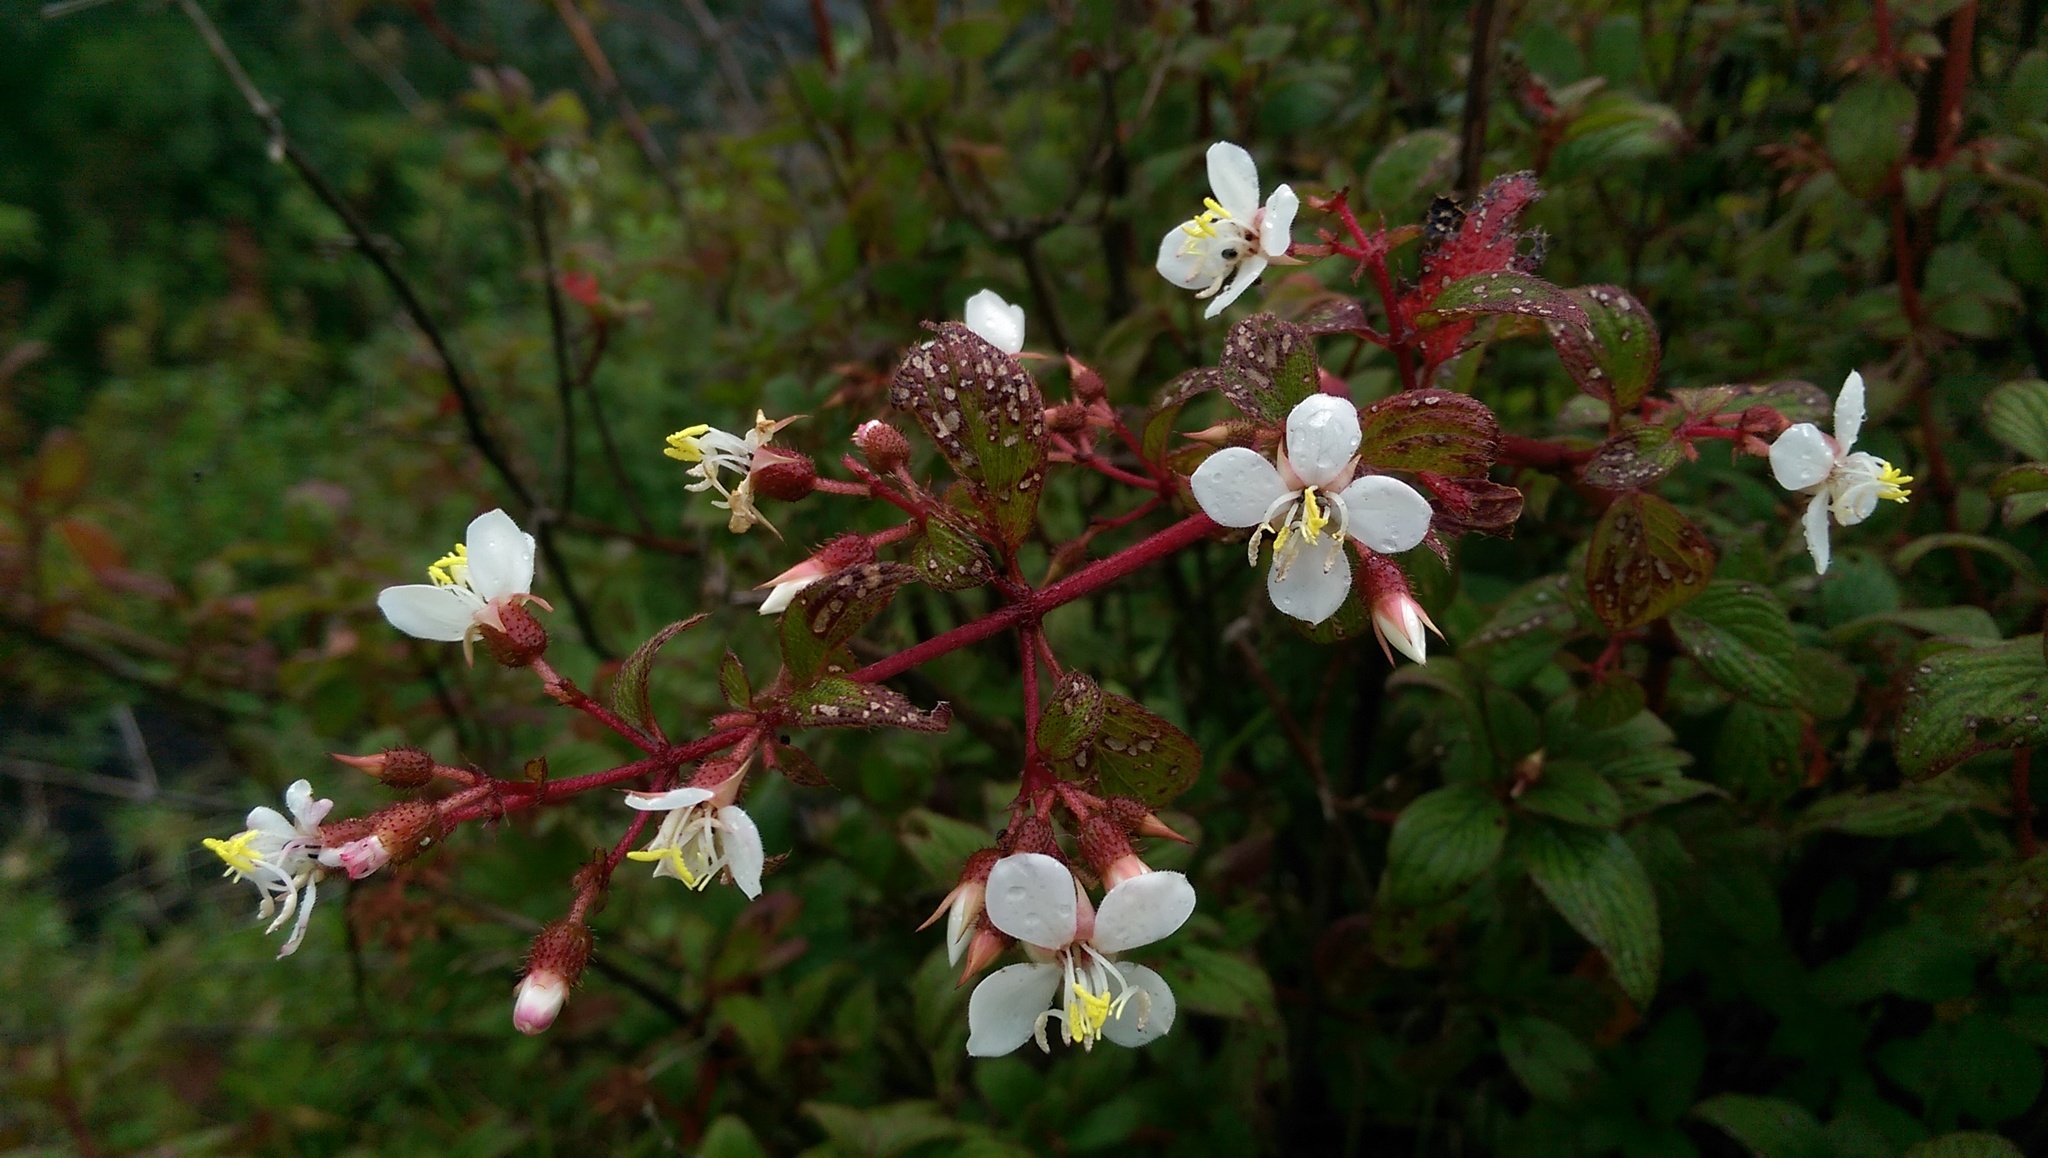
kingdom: Plantae
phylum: Tracheophyta
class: Magnoliopsida
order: Myrtales
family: Melastomataceae
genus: Heterocentron
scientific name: Heterocentron subtriplinervium
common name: Pearl flower
